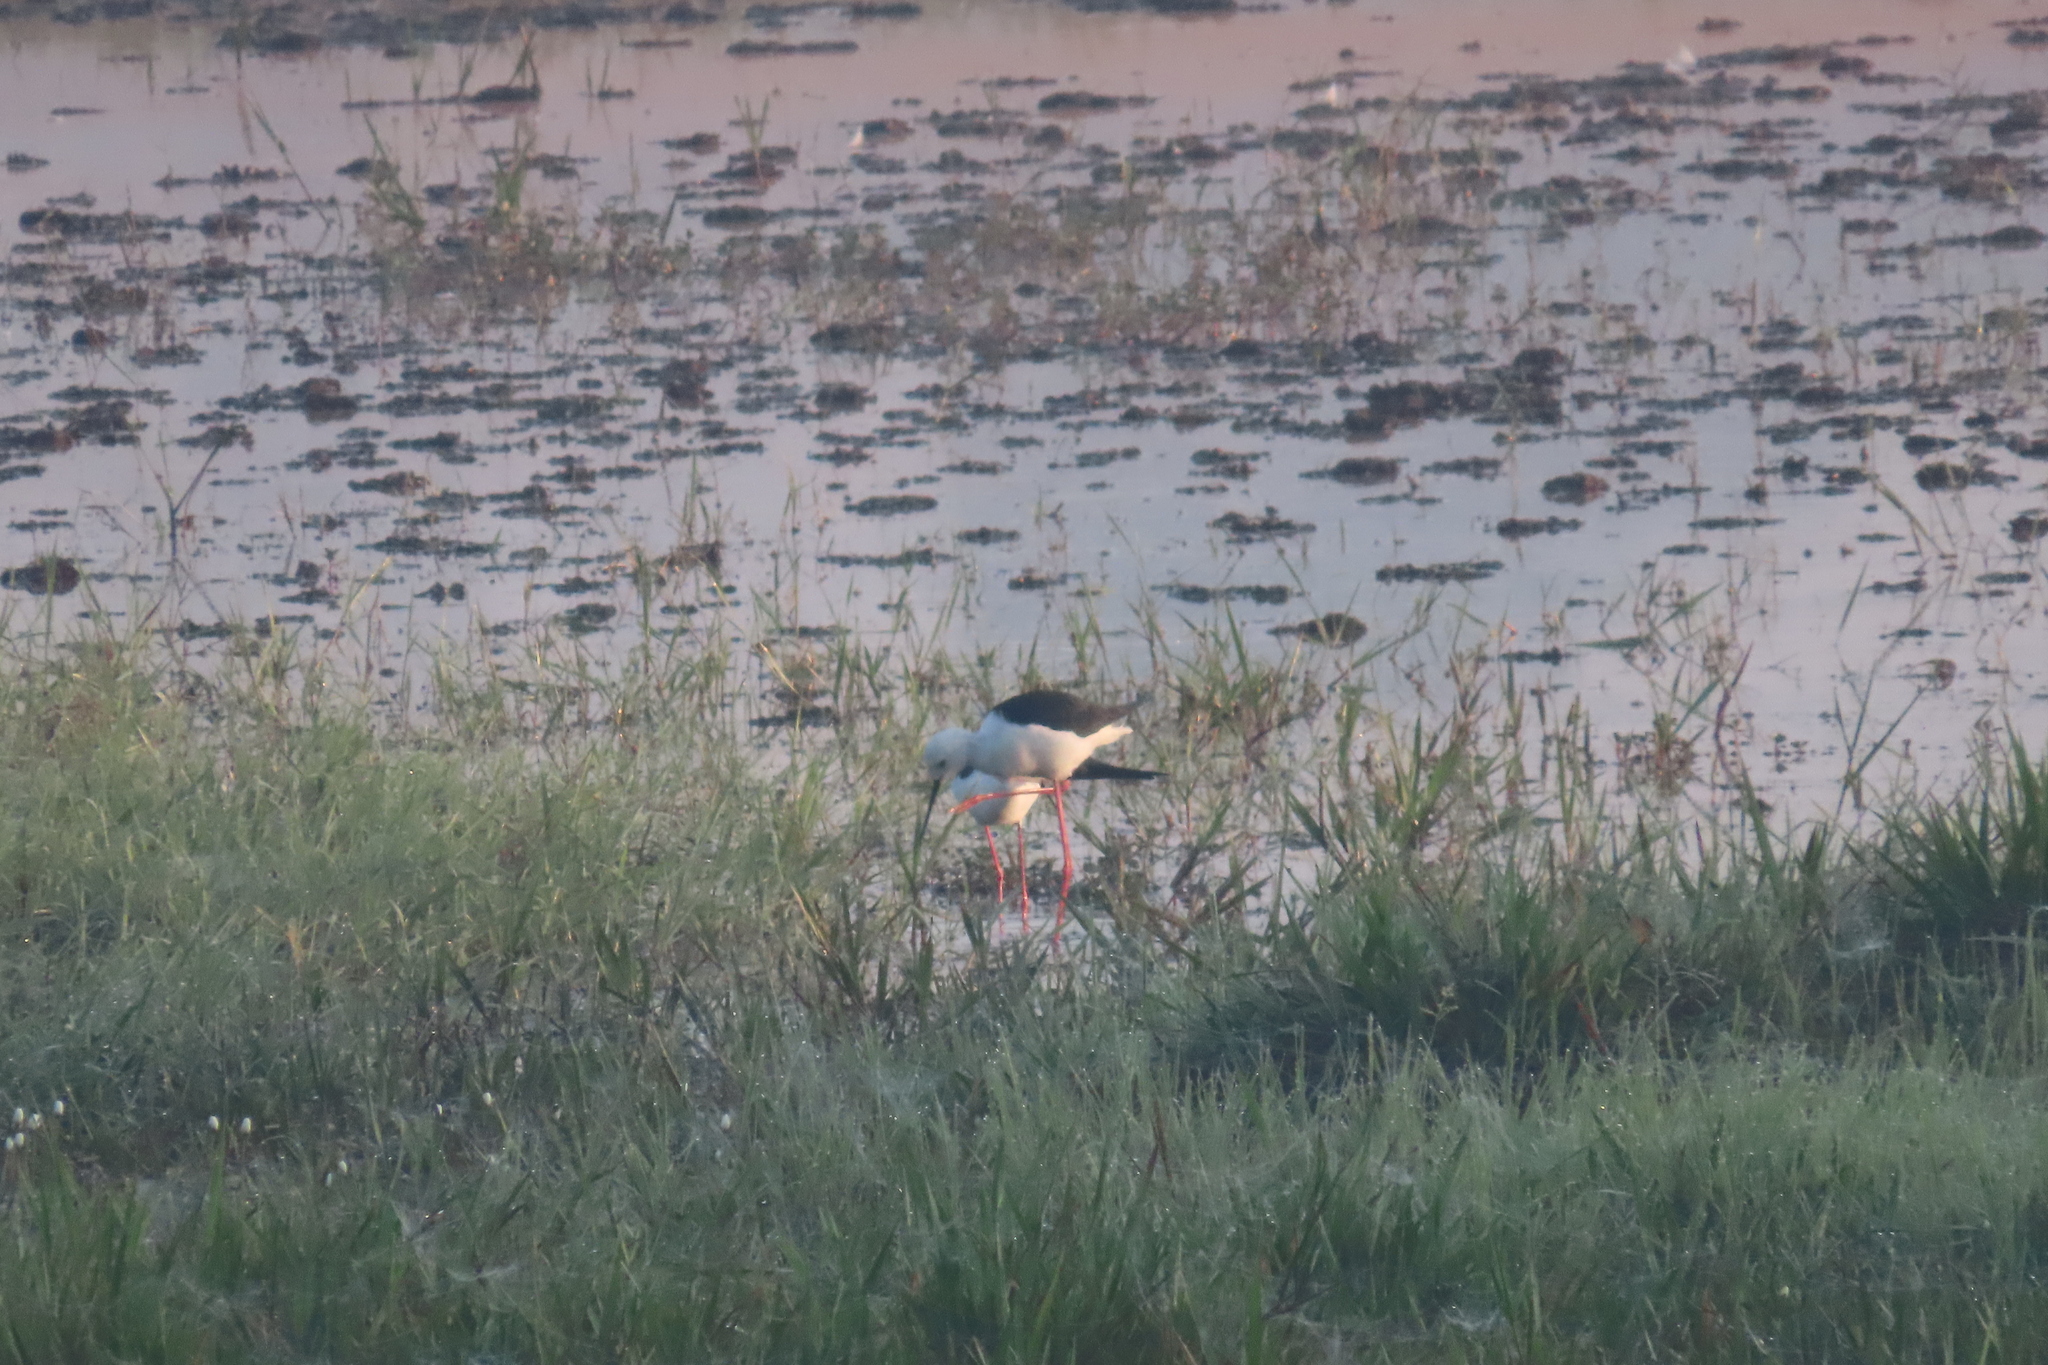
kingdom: Animalia
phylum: Chordata
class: Aves
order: Charadriiformes
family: Recurvirostridae
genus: Himantopus
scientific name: Himantopus himantopus
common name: Black-winged stilt
